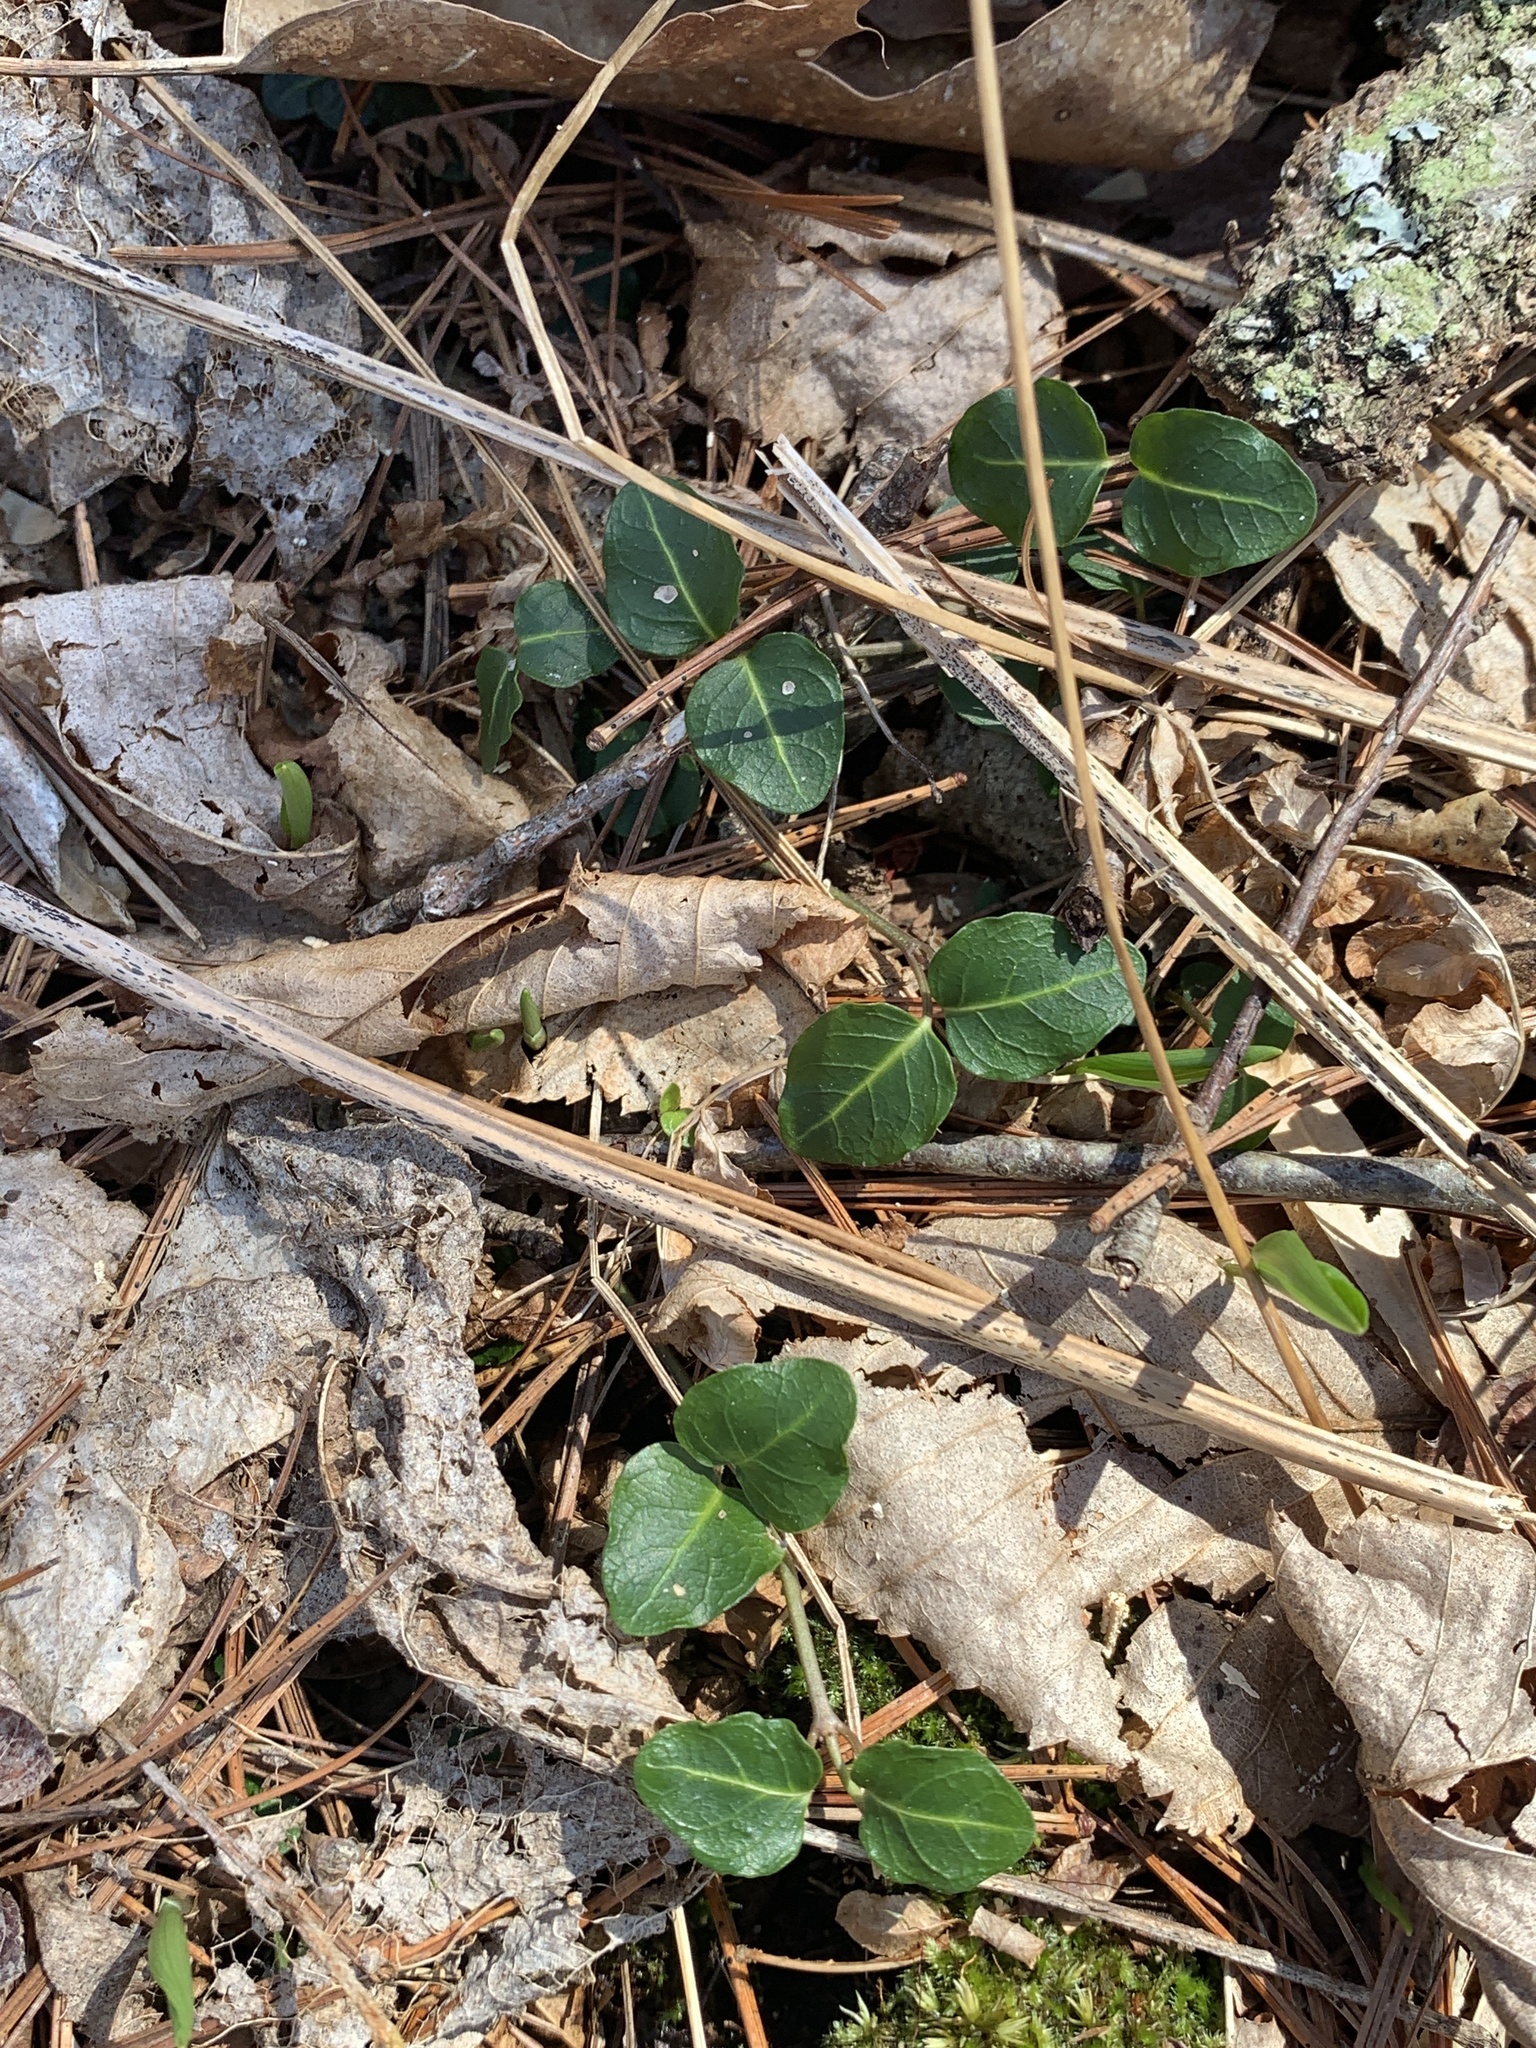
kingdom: Plantae
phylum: Tracheophyta
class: Magnoliopsida
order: Gentianales
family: Rubiaceae
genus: Mitchella
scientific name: Mitchella repens
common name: Partridge-berry
